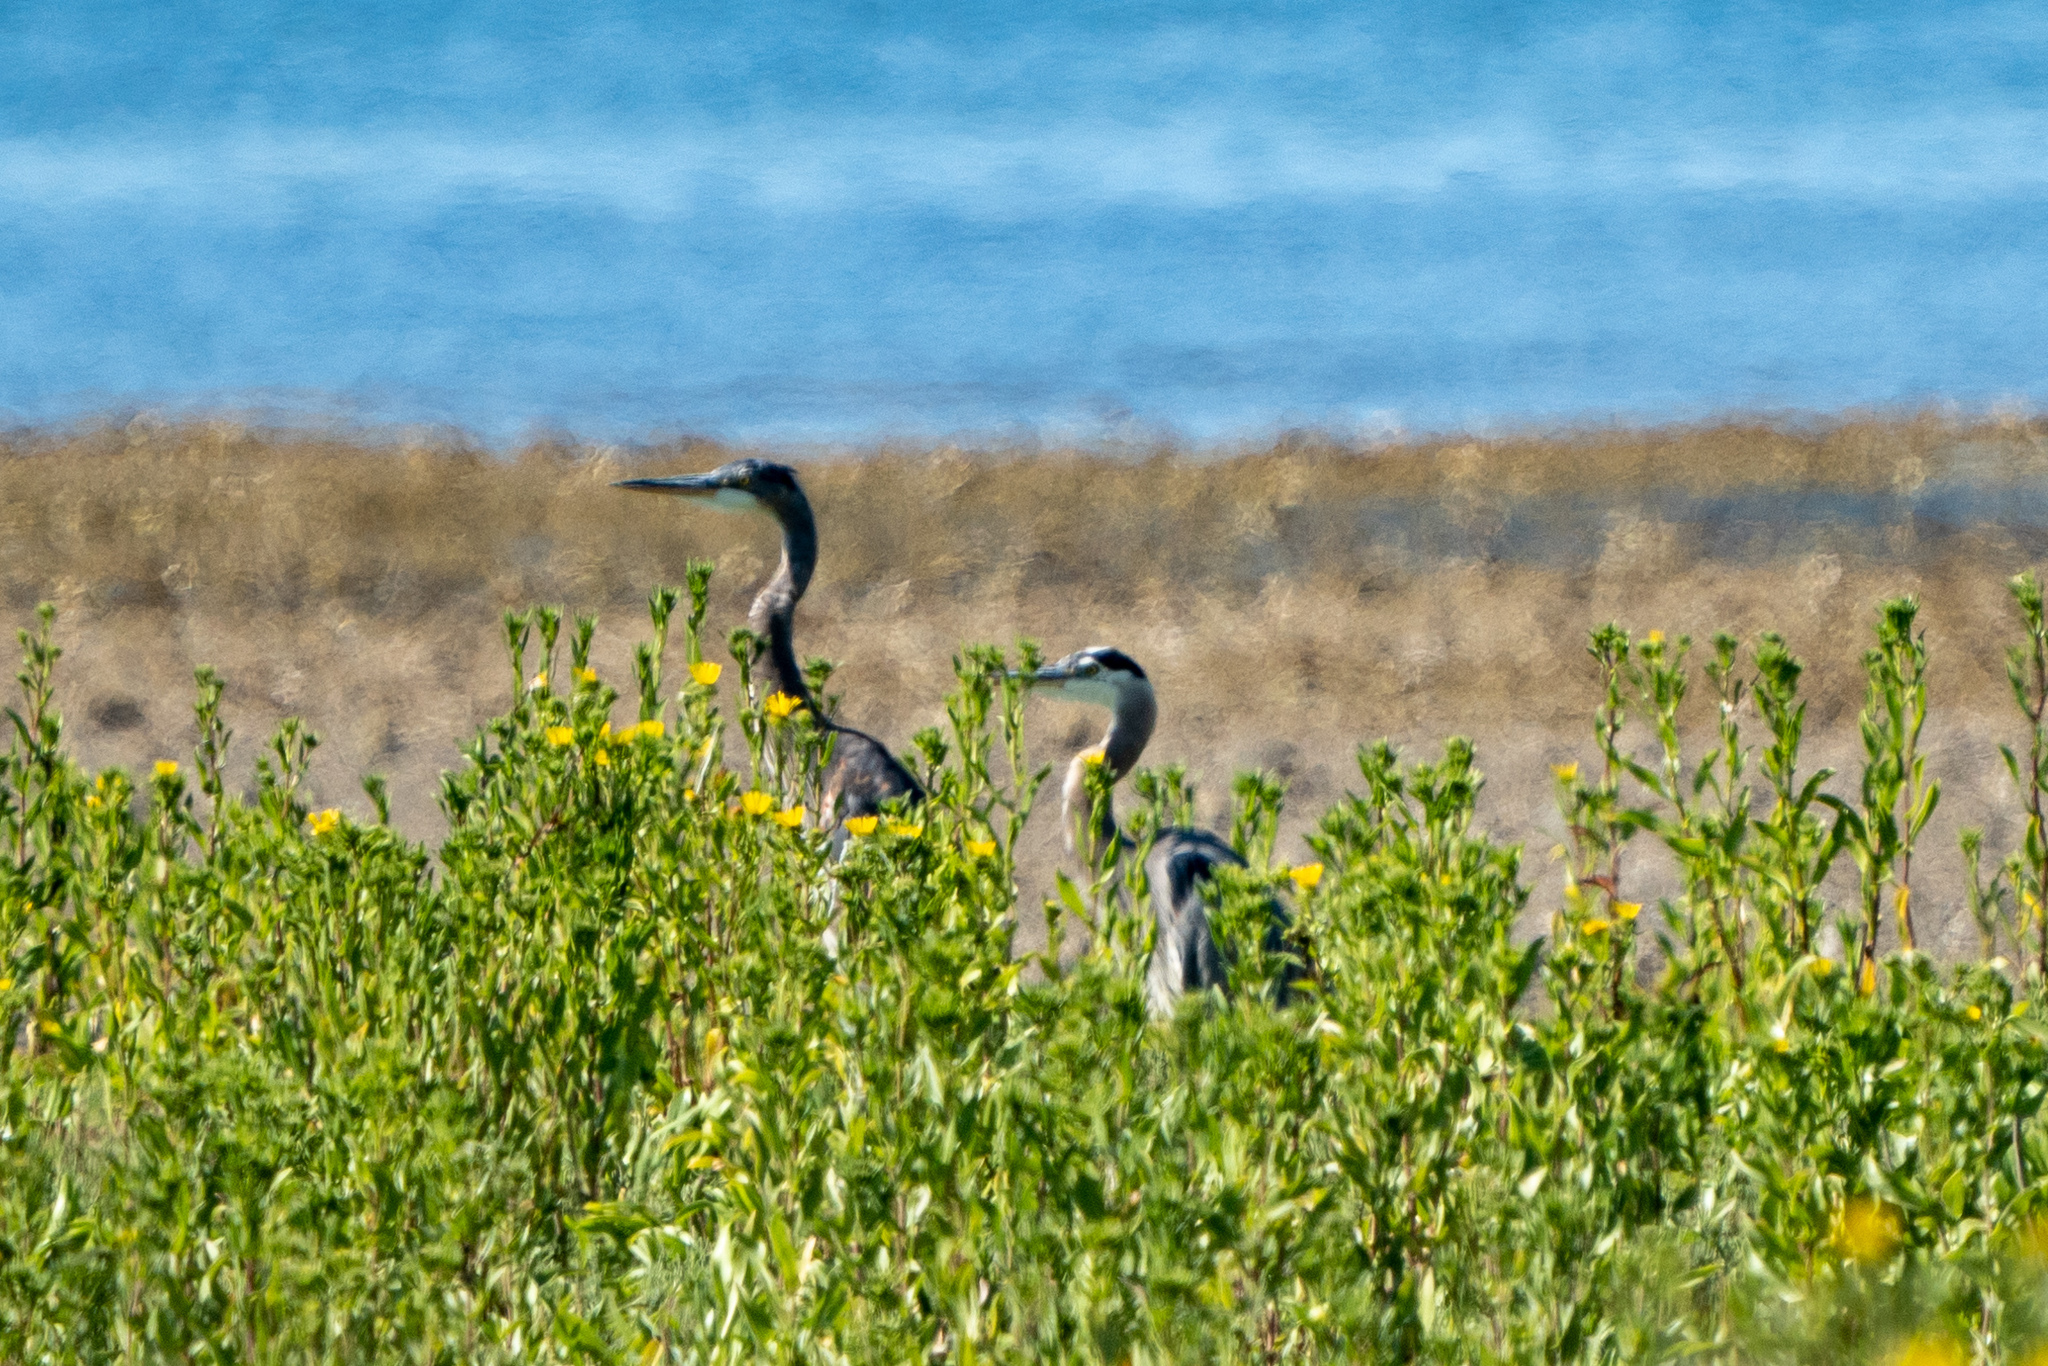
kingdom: Animalia
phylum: Chordata
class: Aves
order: Pelecaniformes
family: Ardeidae
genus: Ardea
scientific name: Ardea herodias
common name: Great blue heron
